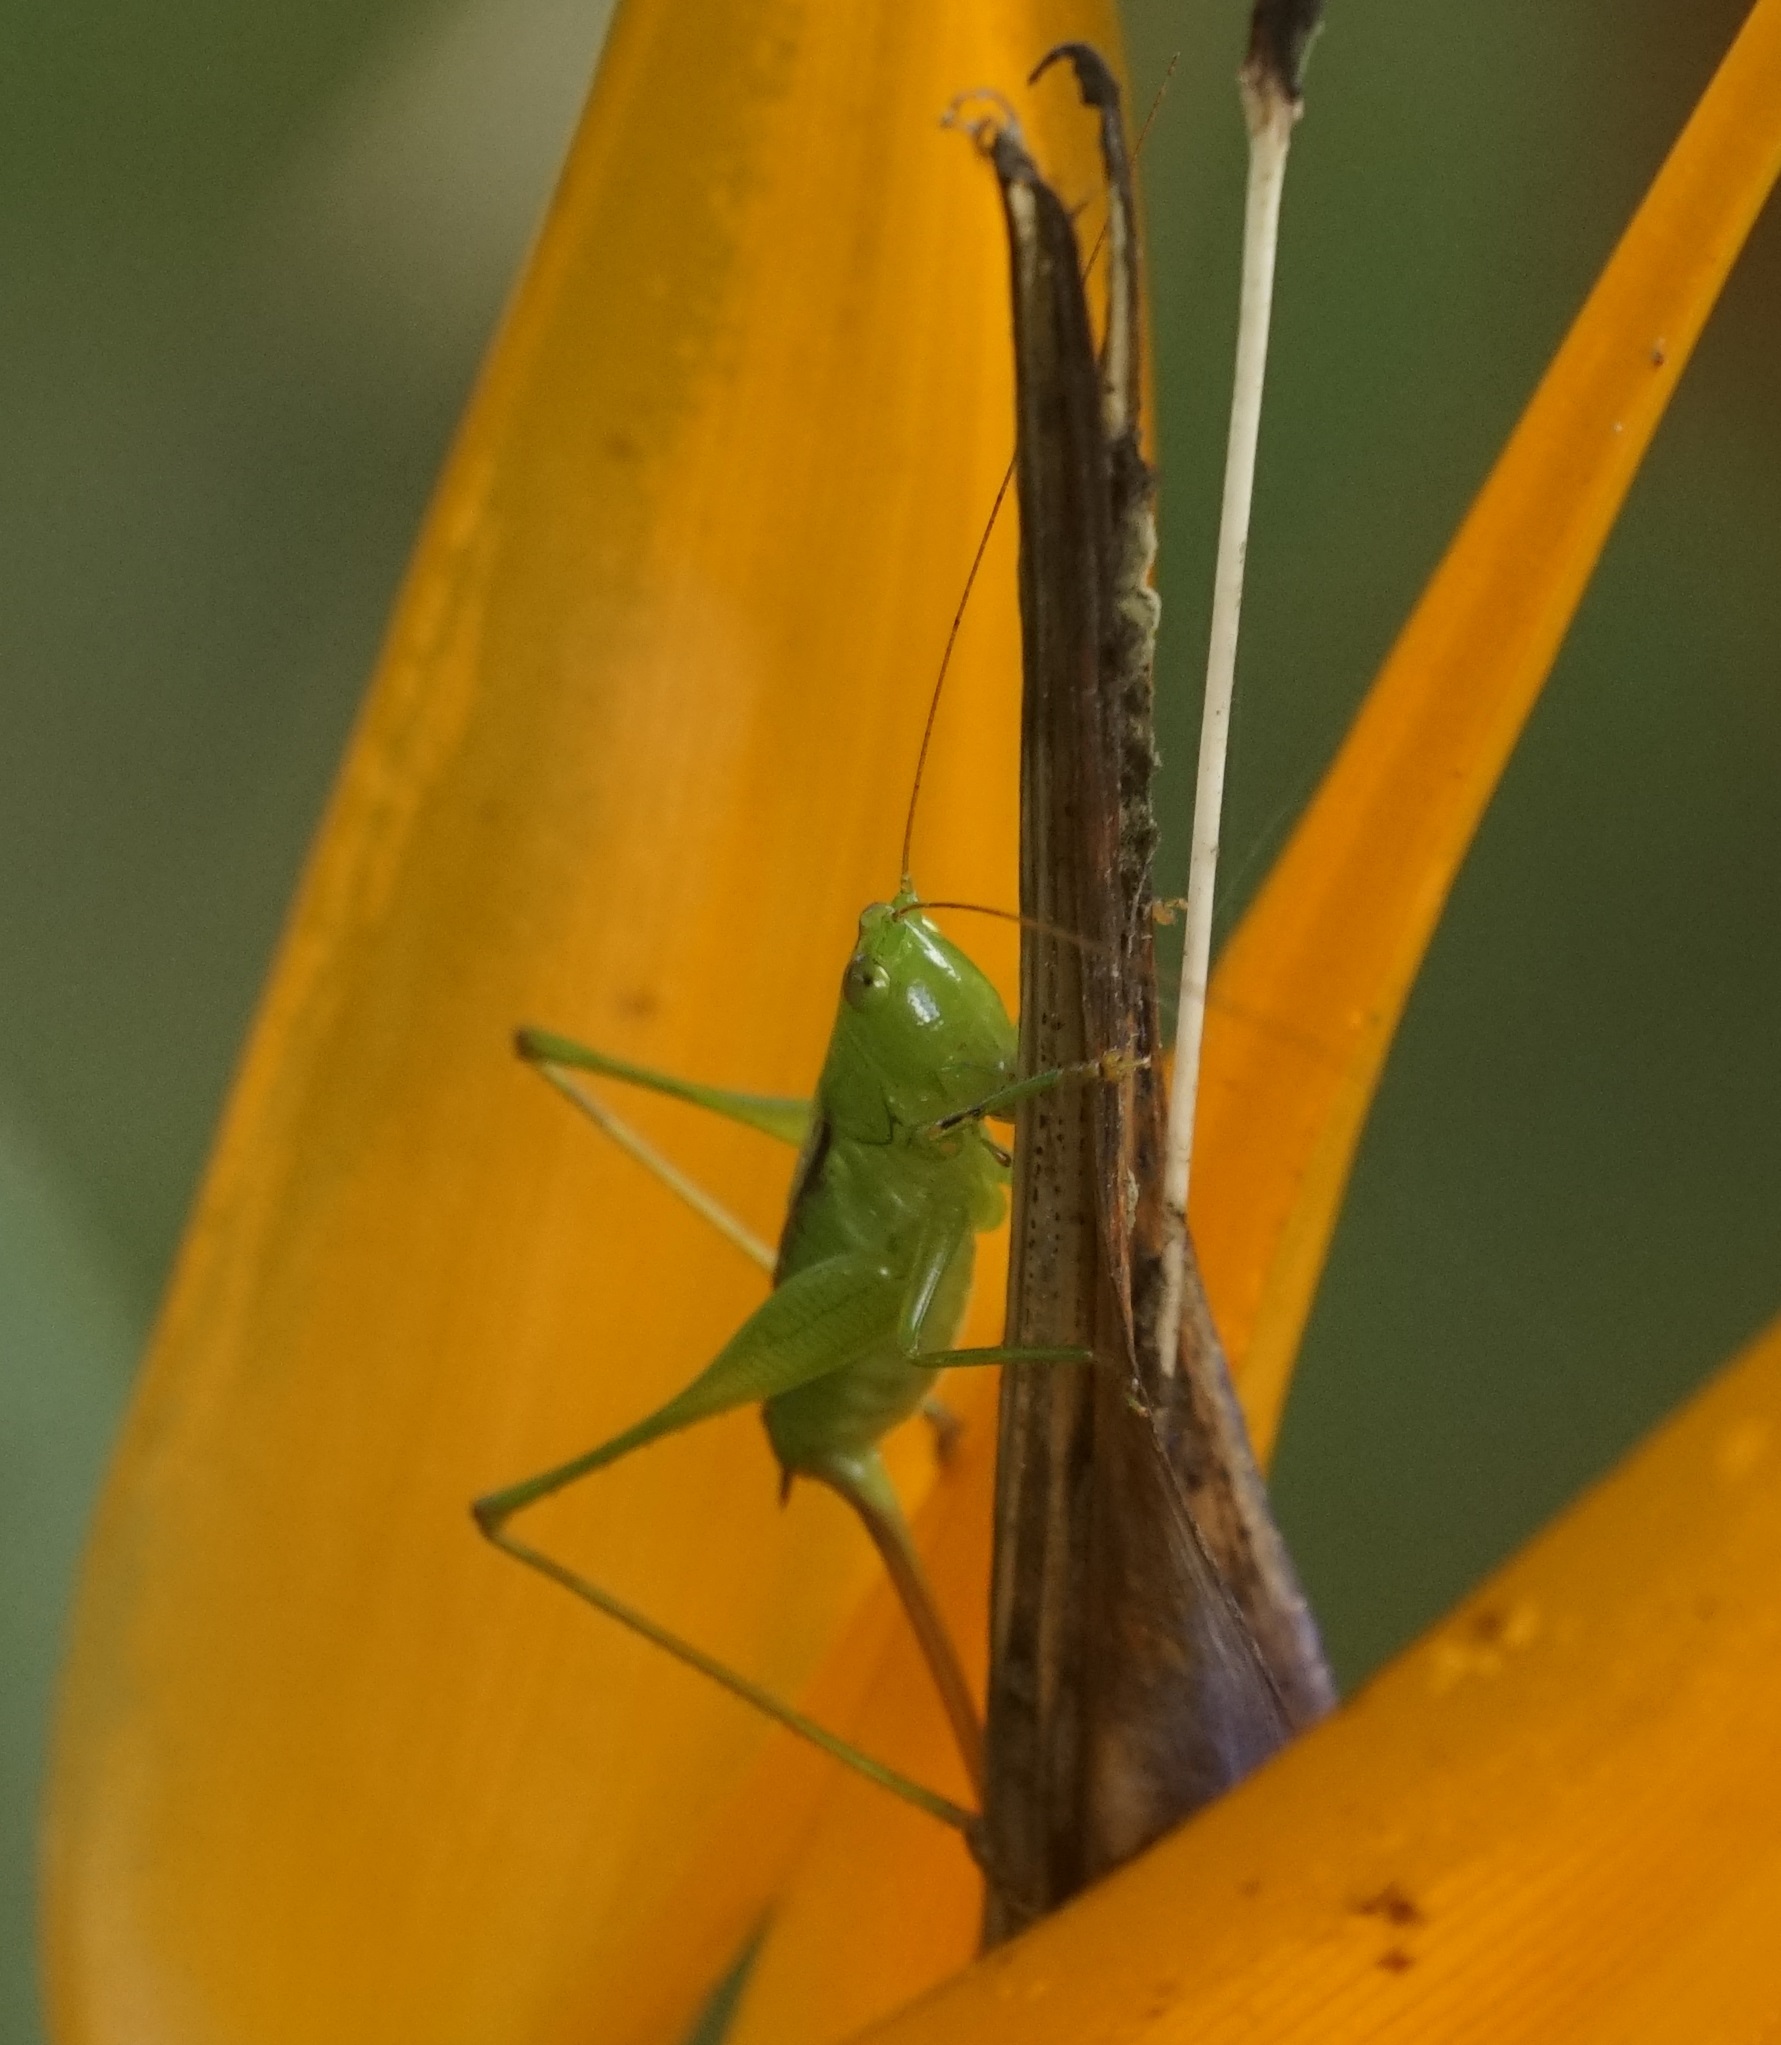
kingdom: Animalia
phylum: Arthropoda
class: Insecta
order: Orthoptera
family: Tettigoniidae
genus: Conocephalus
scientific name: Conocephalus semivittatus
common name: Blackish meadow katydid
